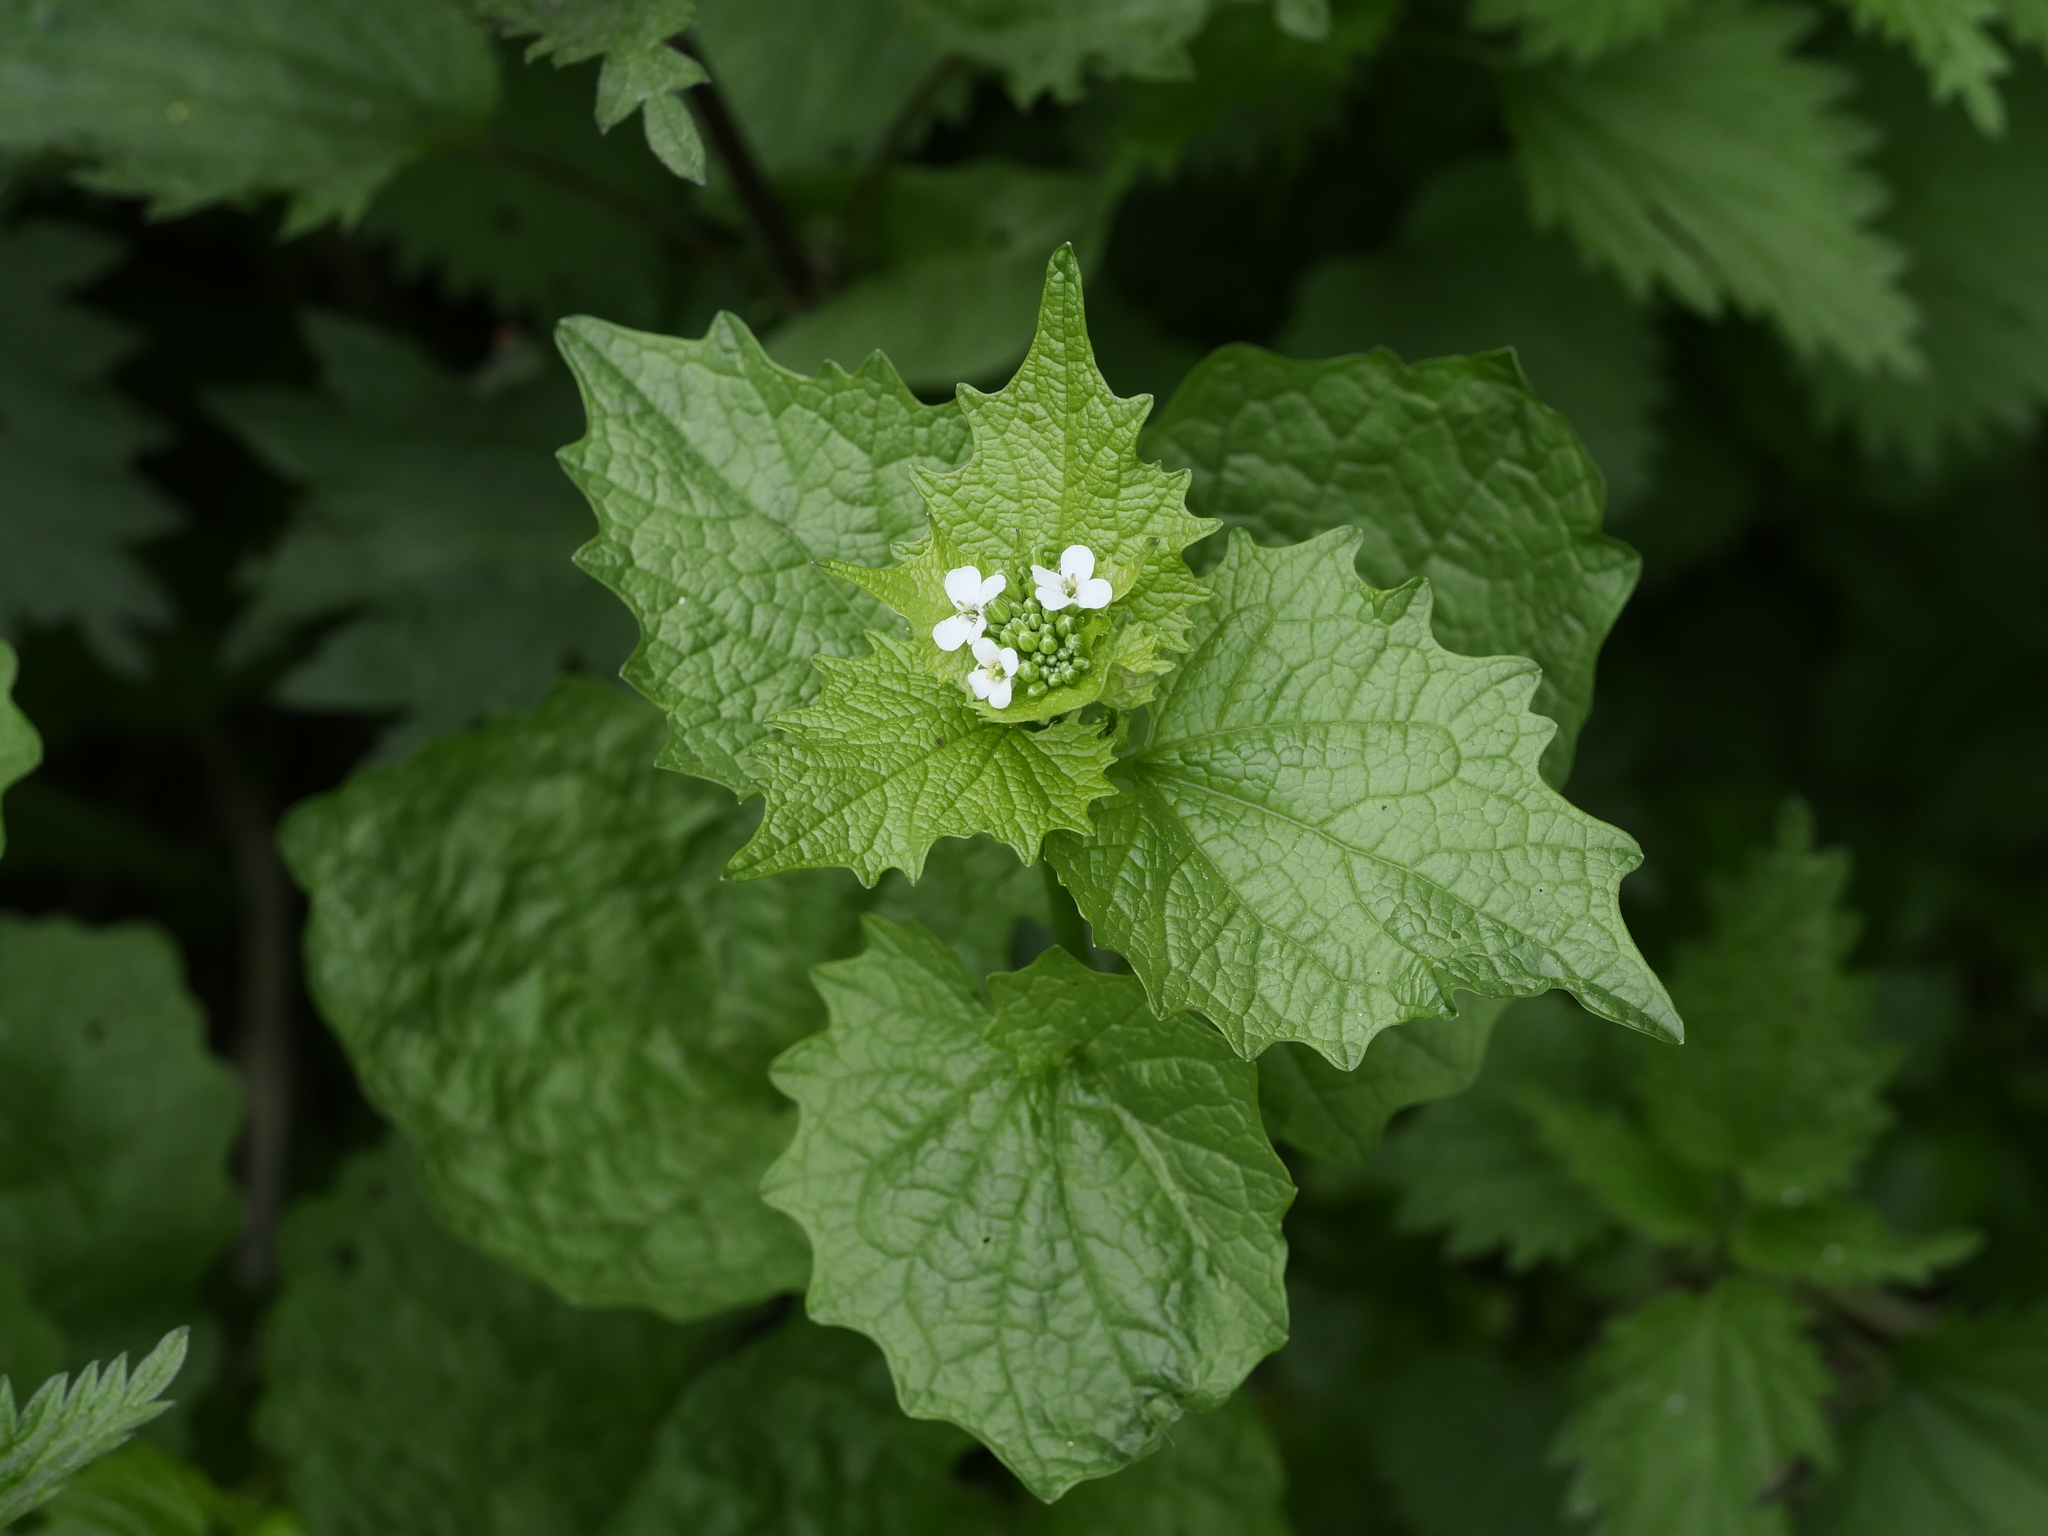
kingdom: Plantae
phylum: Tracheophyta
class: Magnoliopsida
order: Brassicales
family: Brassicaceae
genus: Alliaria
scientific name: Alliaria petiolata
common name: Garlic mustard
